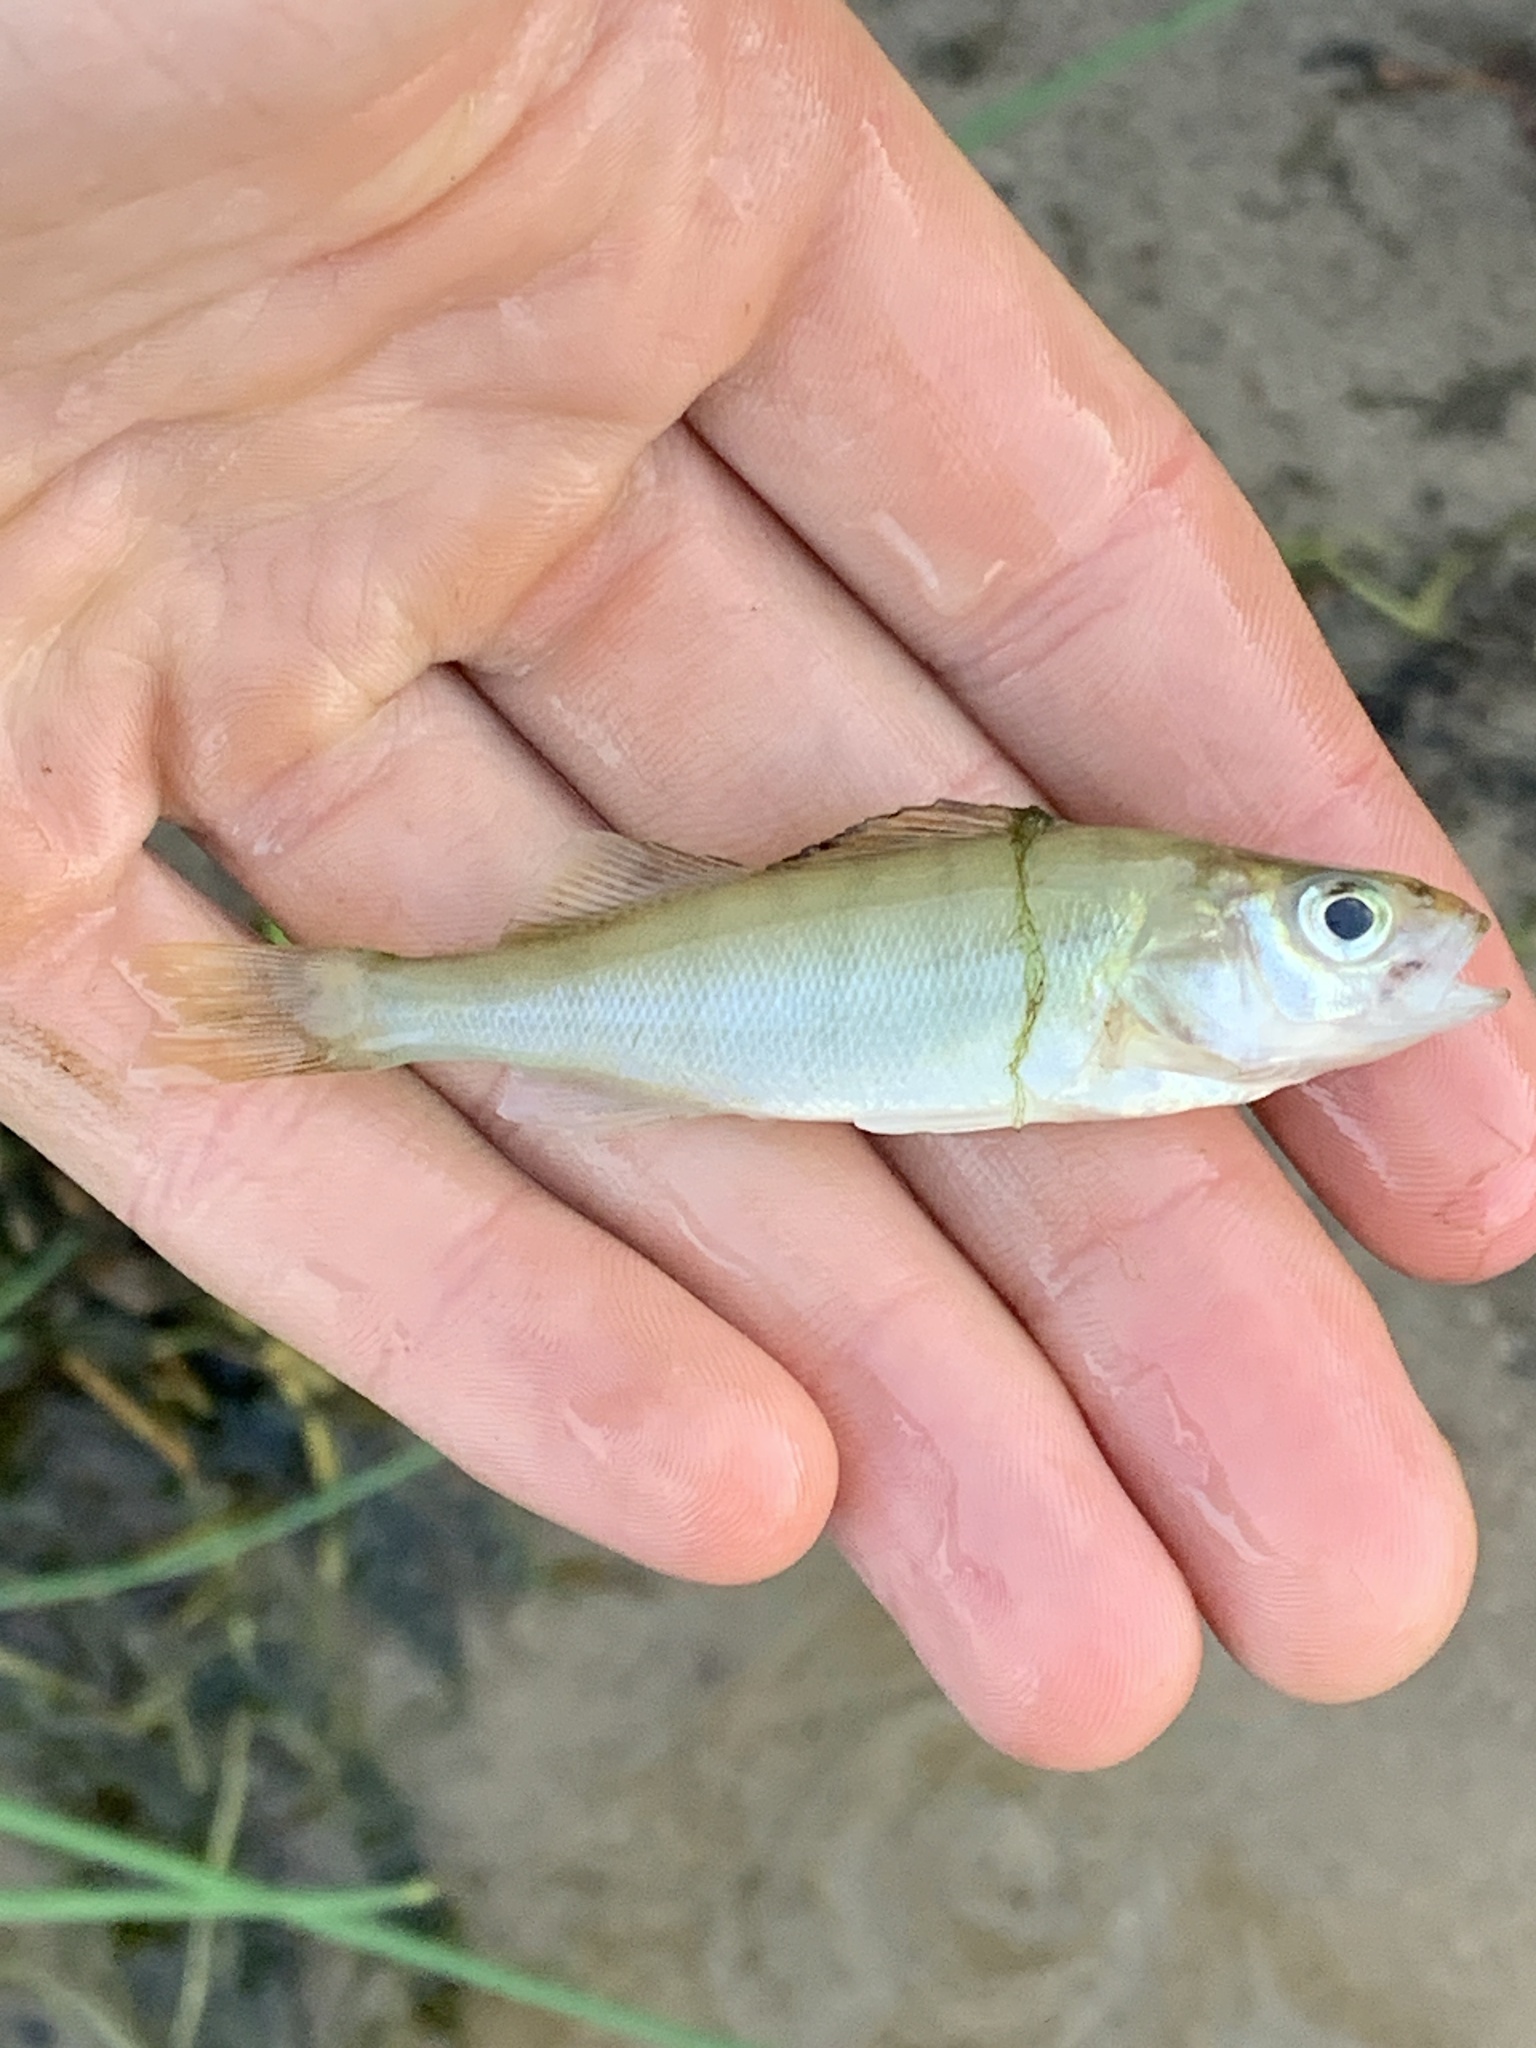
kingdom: Animalia
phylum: Chordata
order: Perciformes
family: Percidae
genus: Perca
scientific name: Perca flavescens
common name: Yellow perch
